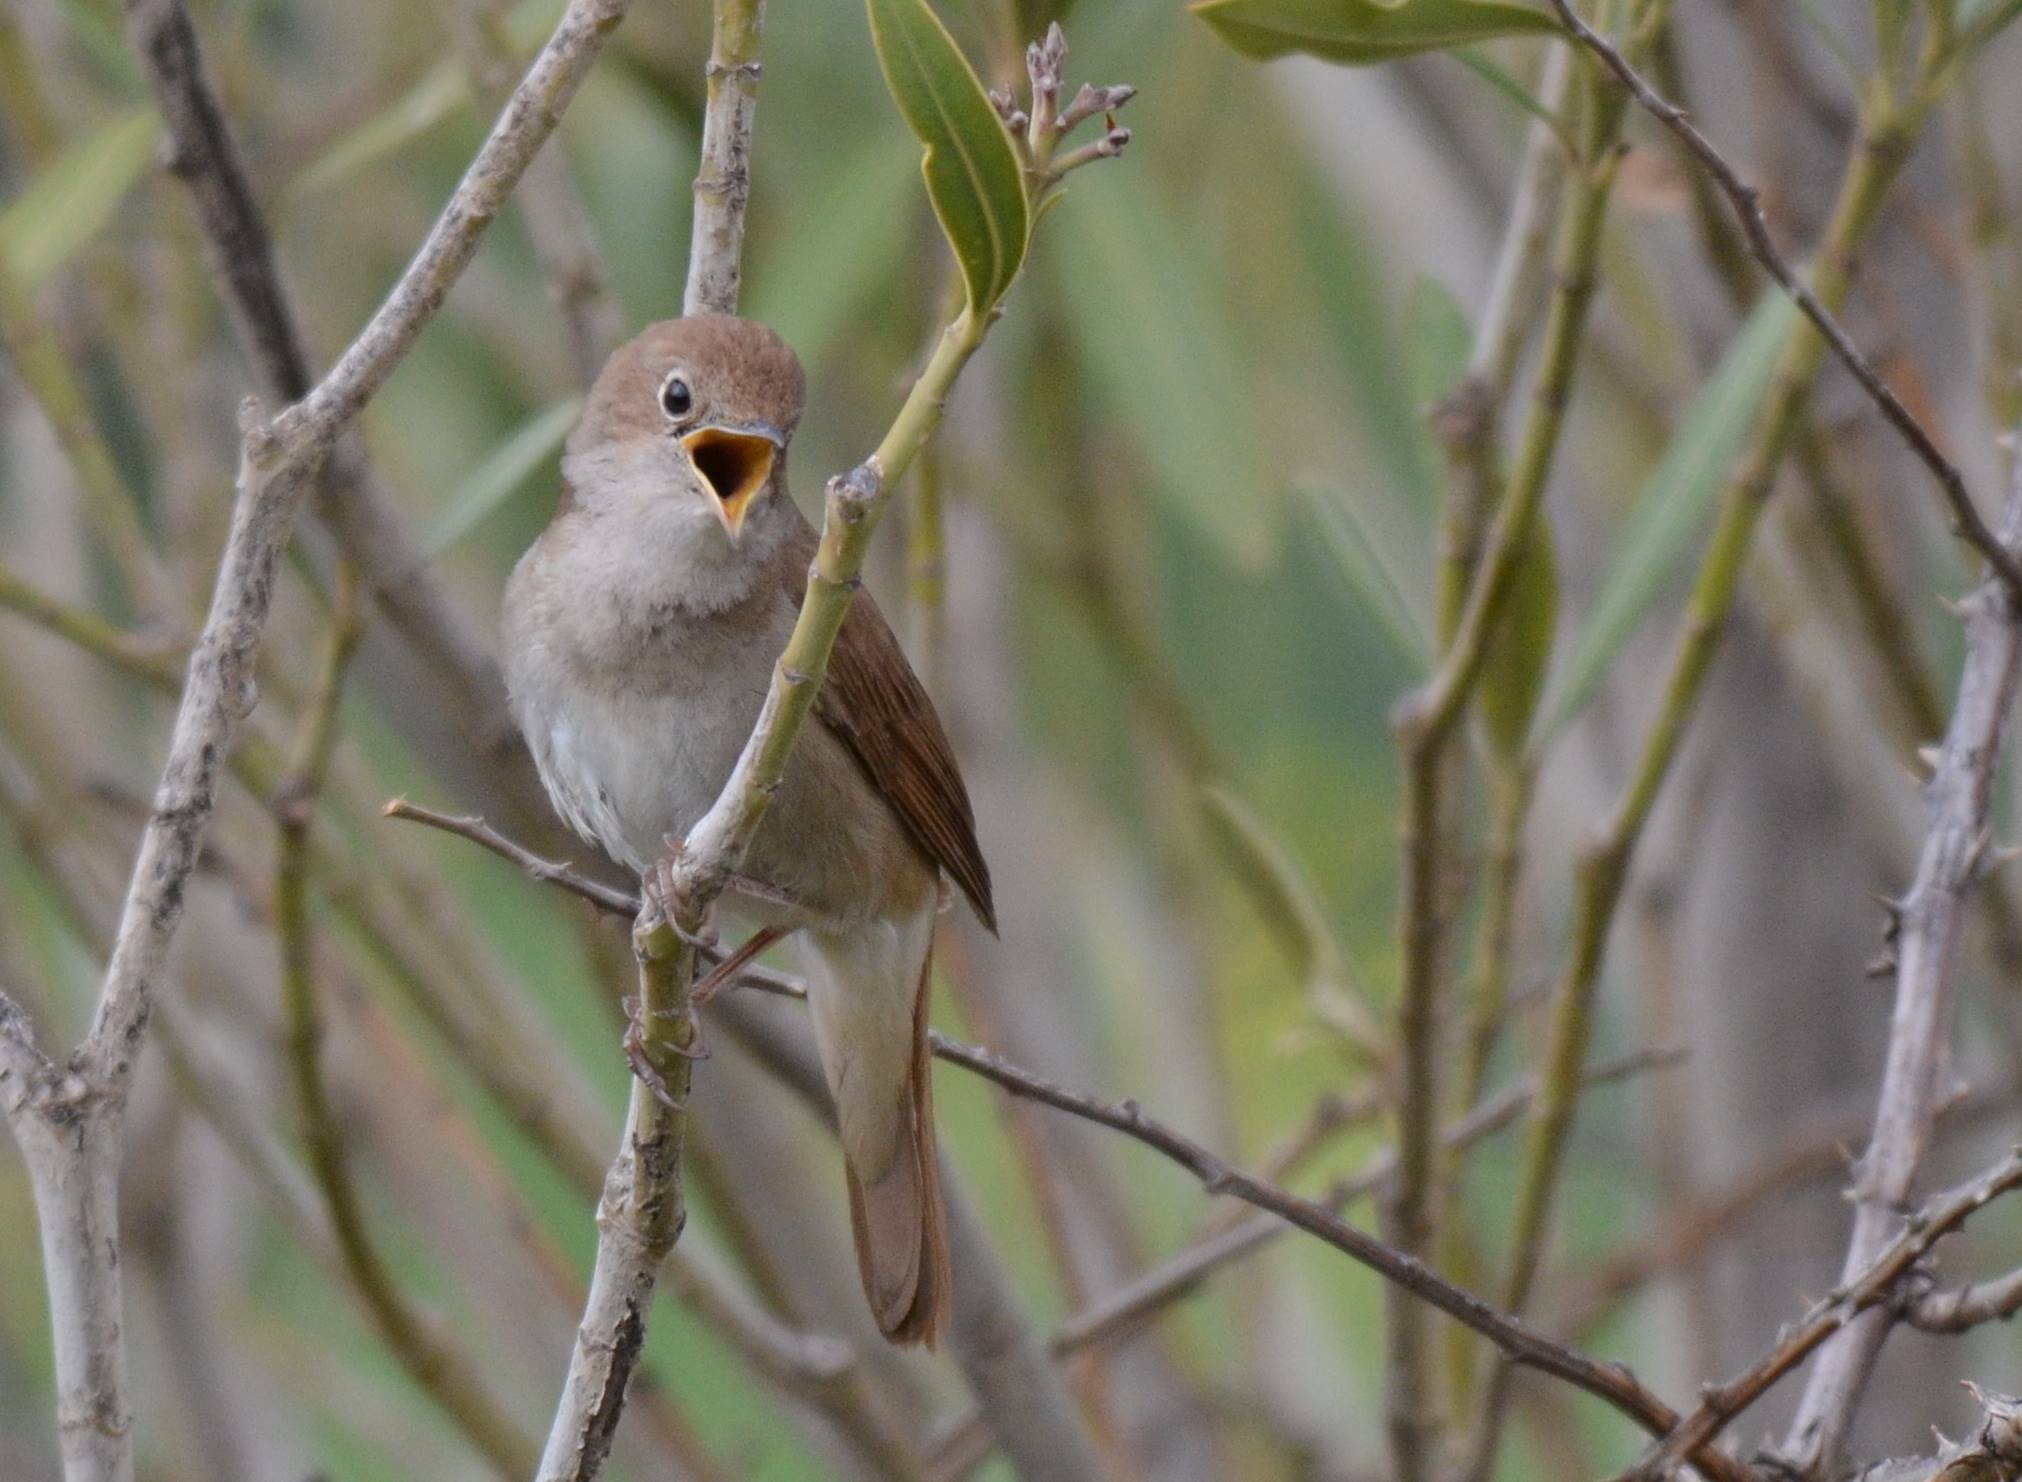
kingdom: Animalia
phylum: Chordata
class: Aves
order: Passeriformes
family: Muscicapidae
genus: Luscinia
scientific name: Luscinia megarhynchos
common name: Common nightingale
